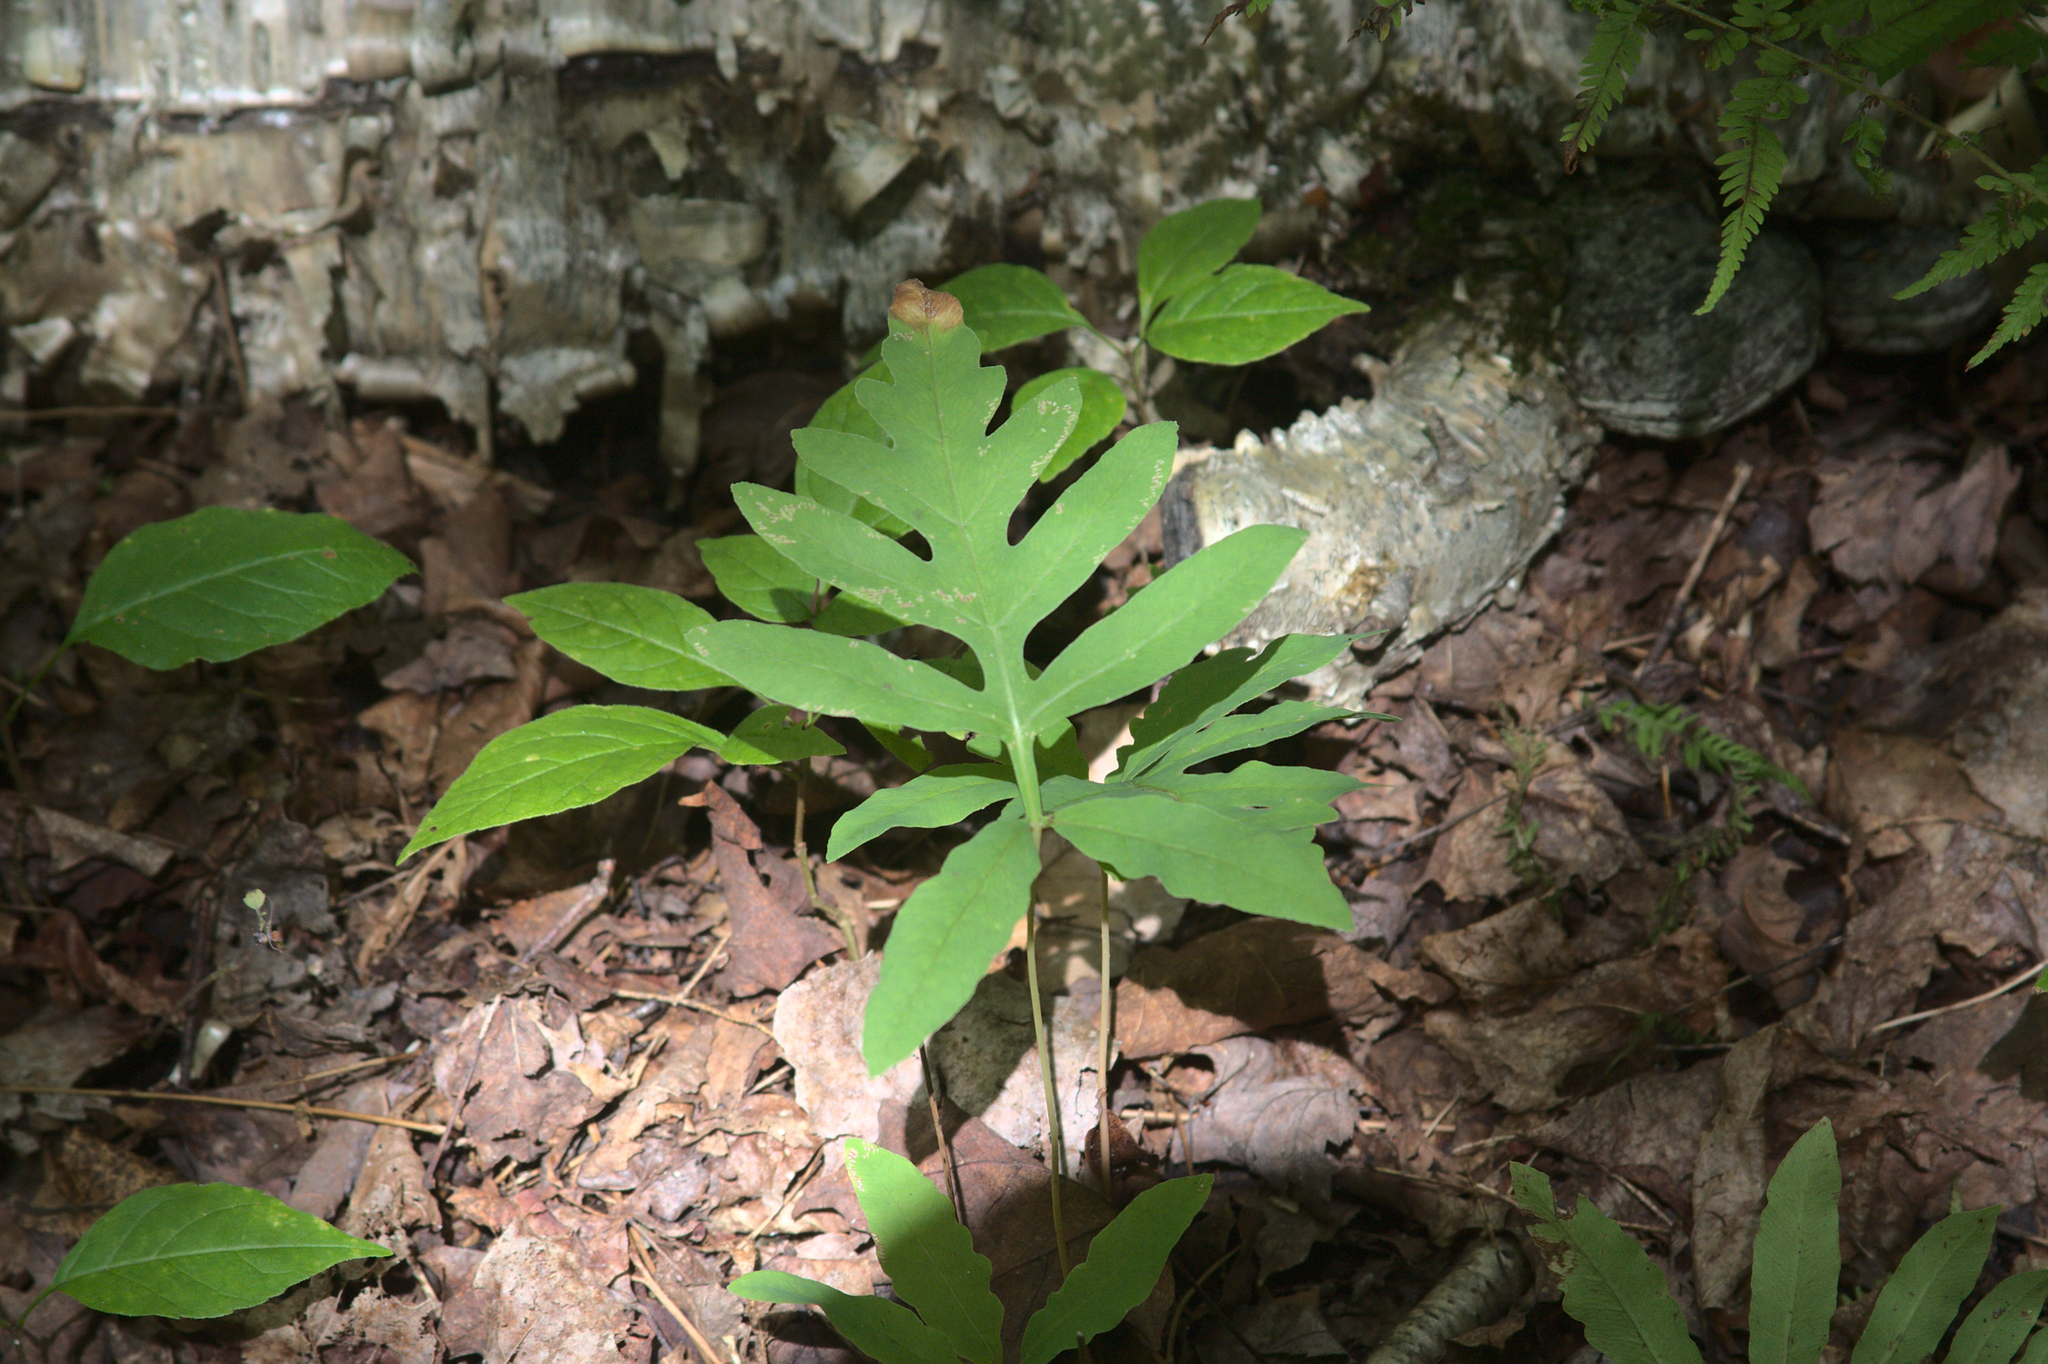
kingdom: Plantae
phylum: Tracheophyta
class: Polypodiopsida
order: Polypodiales
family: Onocleaceae
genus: Onoclea
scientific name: Onoclea sensibilis
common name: Sensitive fern
